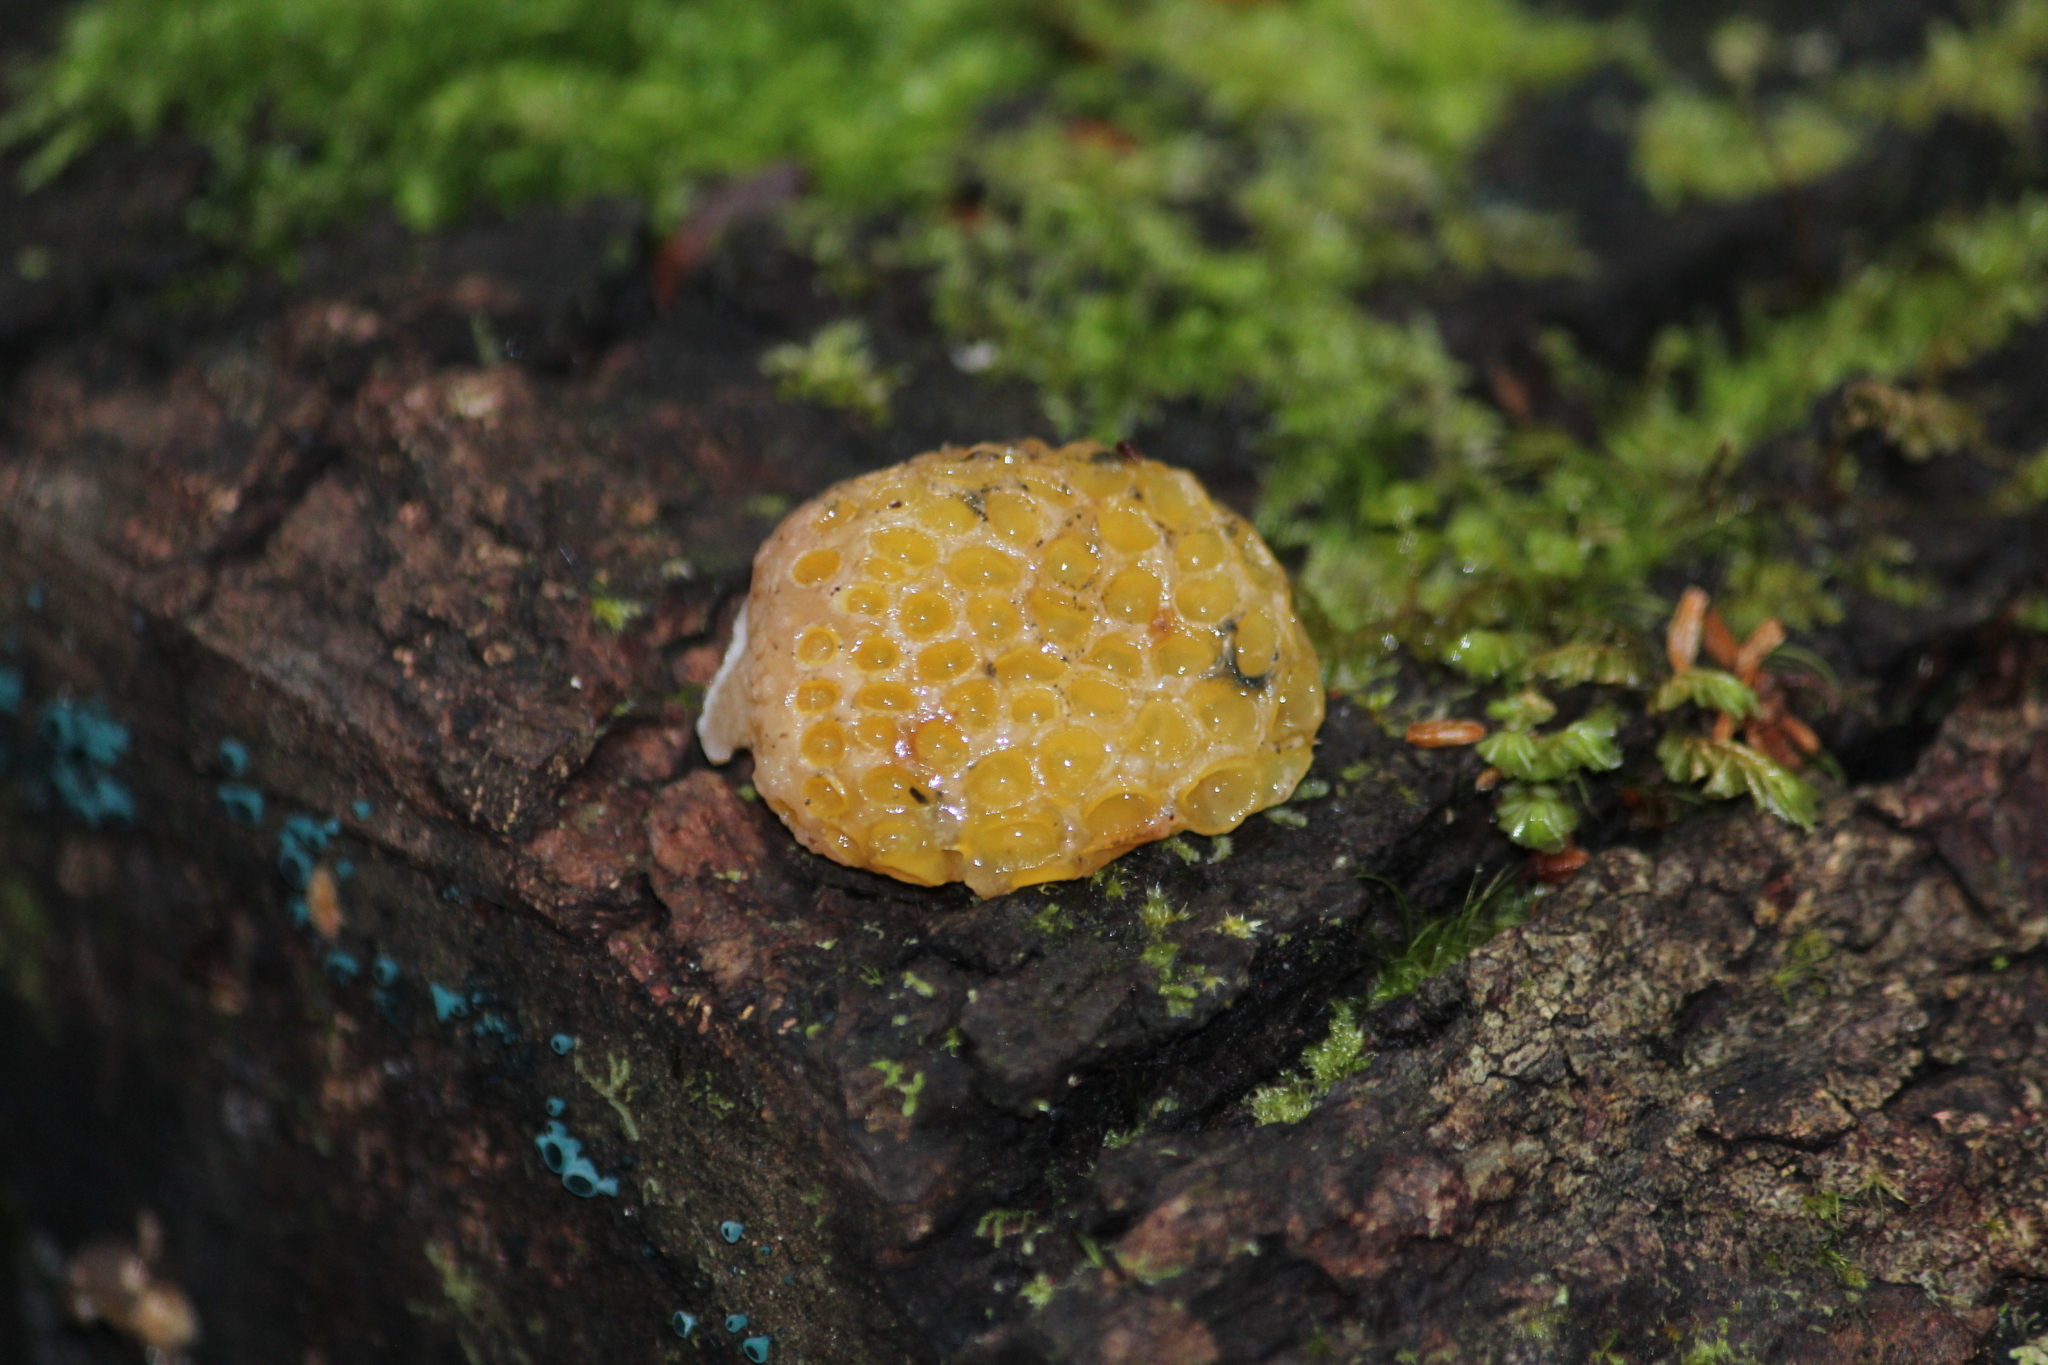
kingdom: Fungi
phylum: Ascomycota
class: Leotiomycetes
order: Cyttariales
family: Cyttariaceae
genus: Cyttaria
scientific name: Cyttaria gunnii
